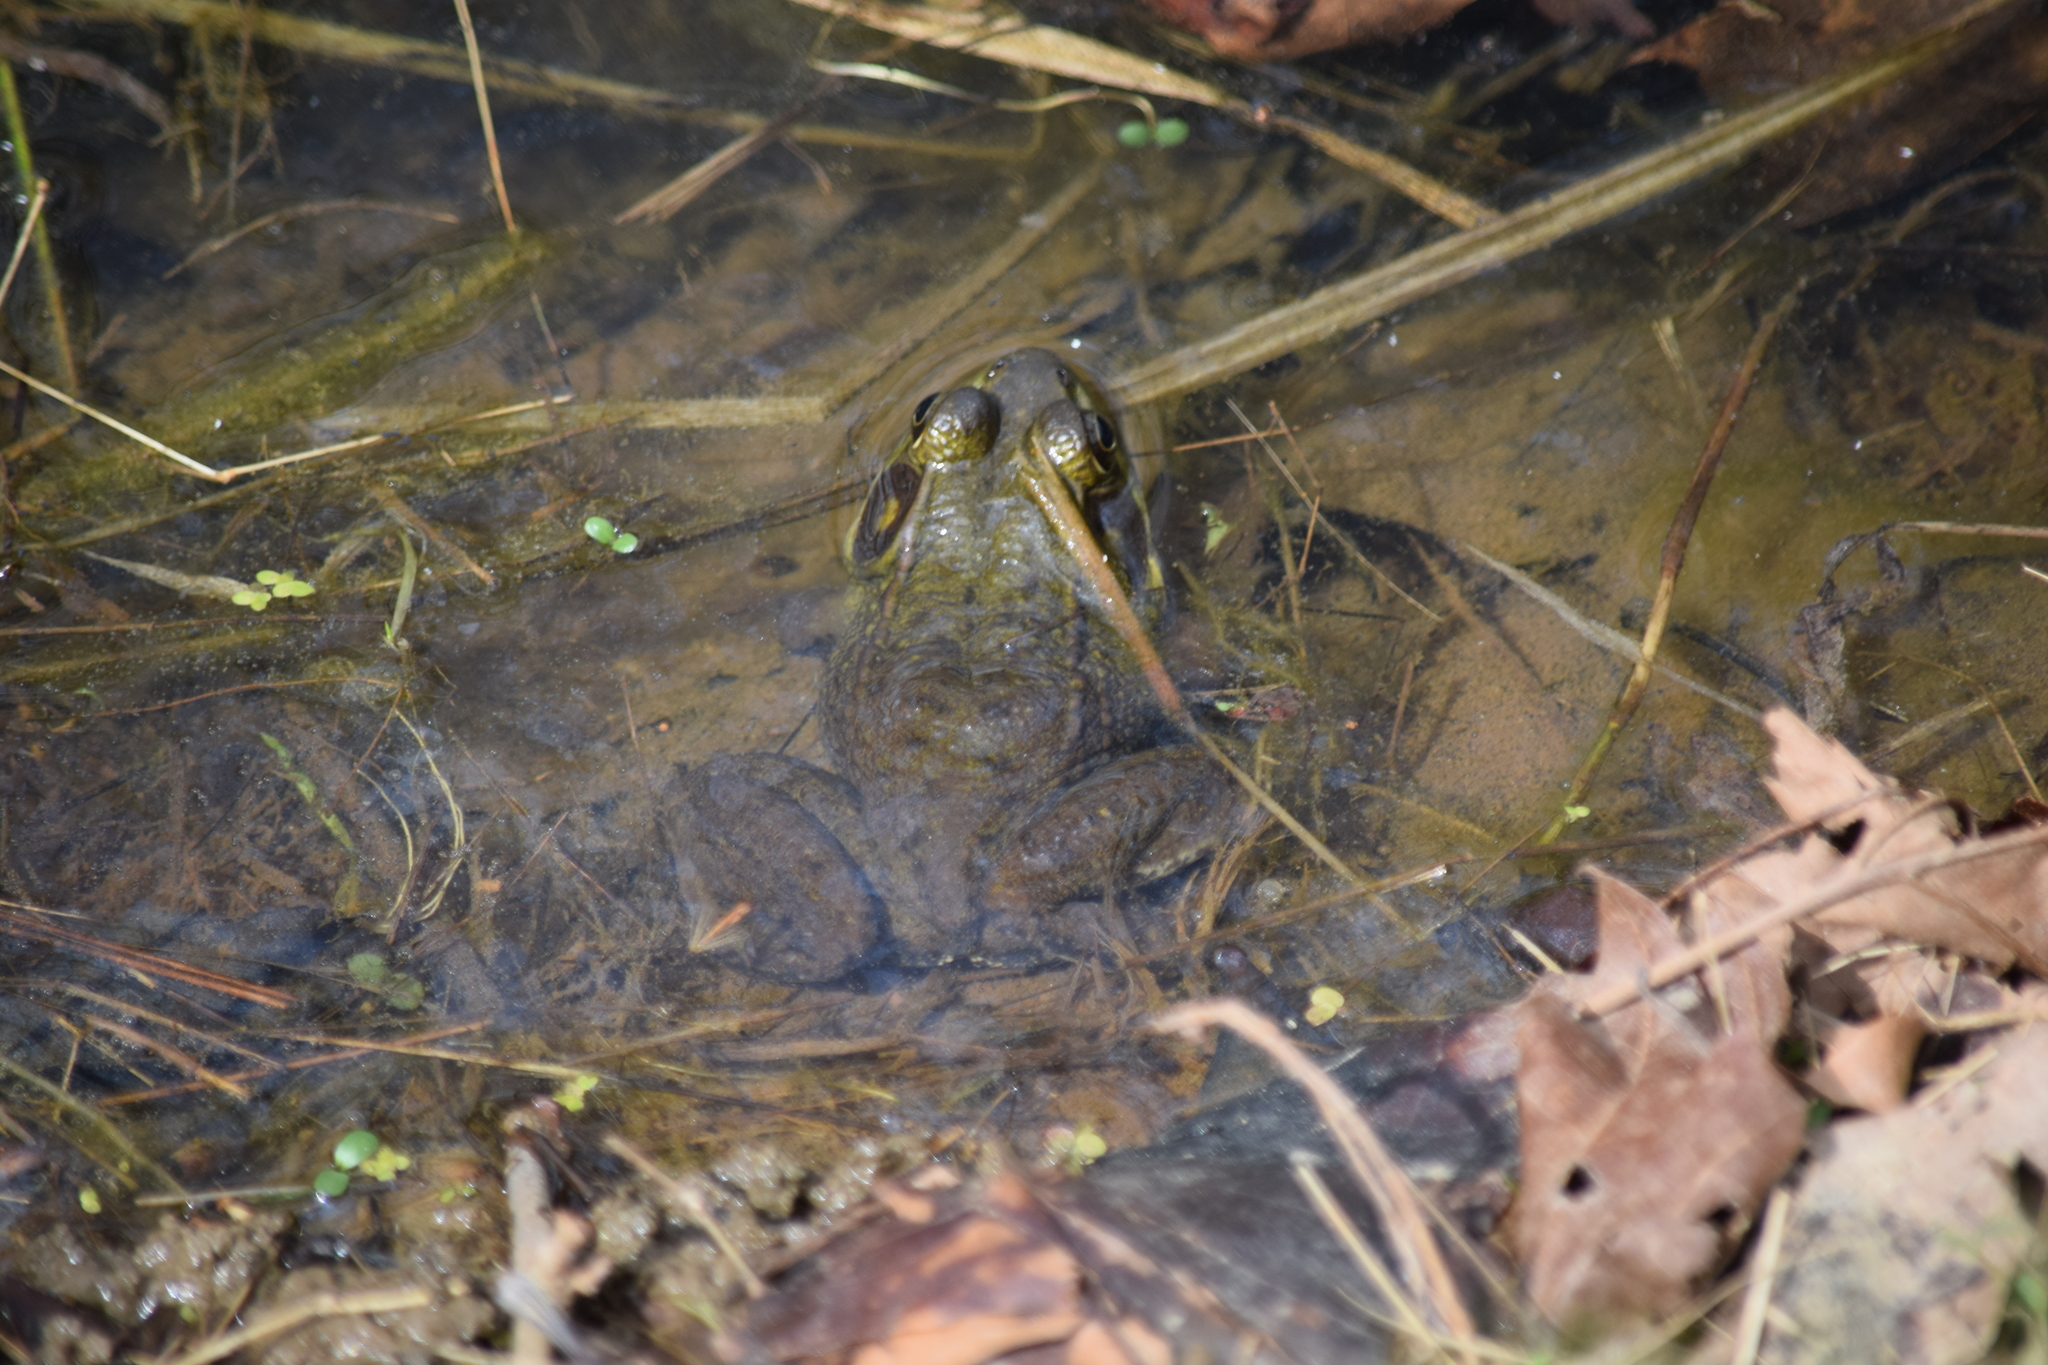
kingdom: Animalia
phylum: Chordata
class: Amphibia
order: Anura
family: Ranidae
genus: Lithobates
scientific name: Lithobates clamitans
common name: Green frog
